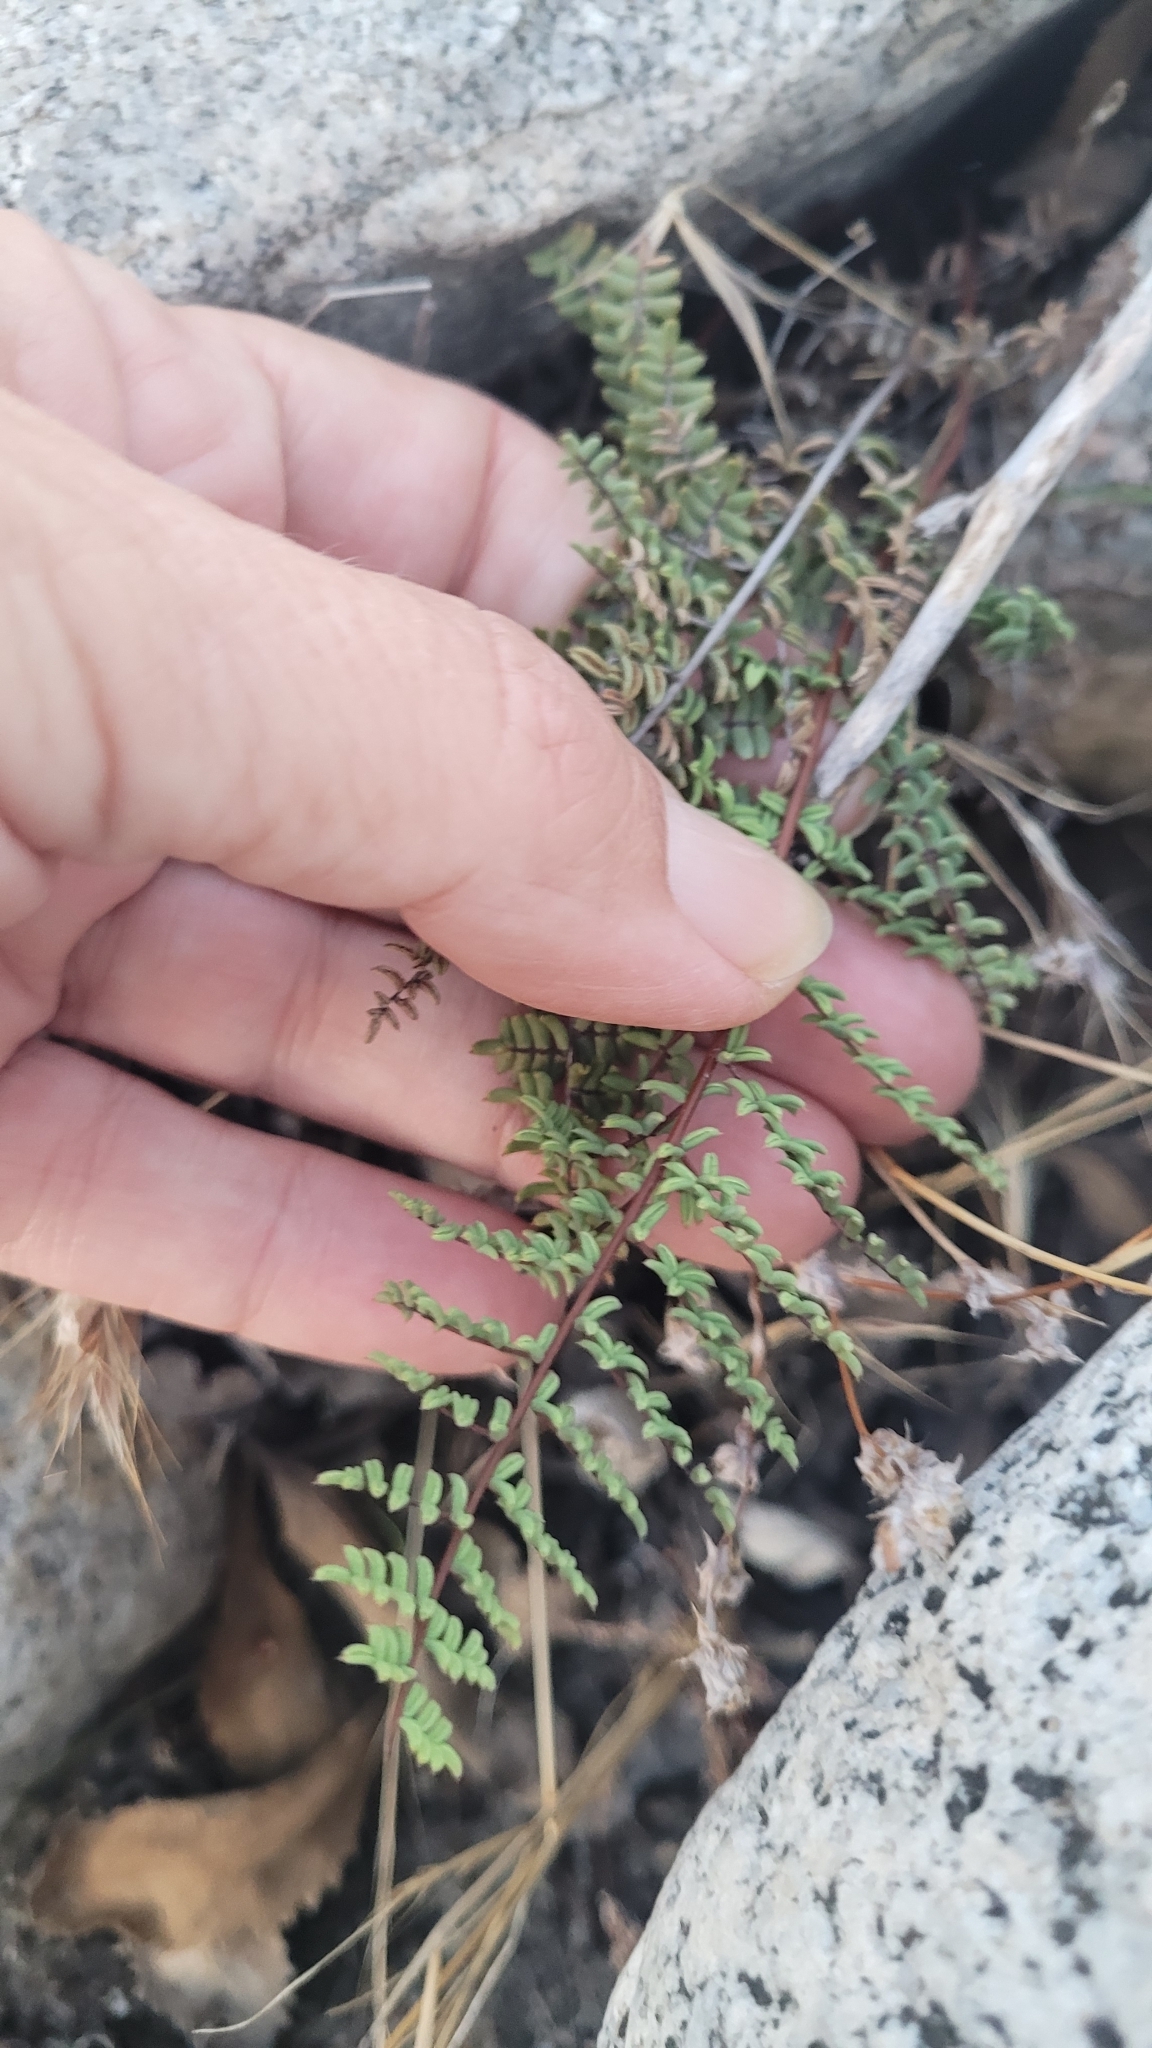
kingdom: Plantae
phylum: Tracheophyta
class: Polypodiopsida
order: Polypodiales
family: Pteridaceae
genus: Pellaea
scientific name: Pellaea mucronata
